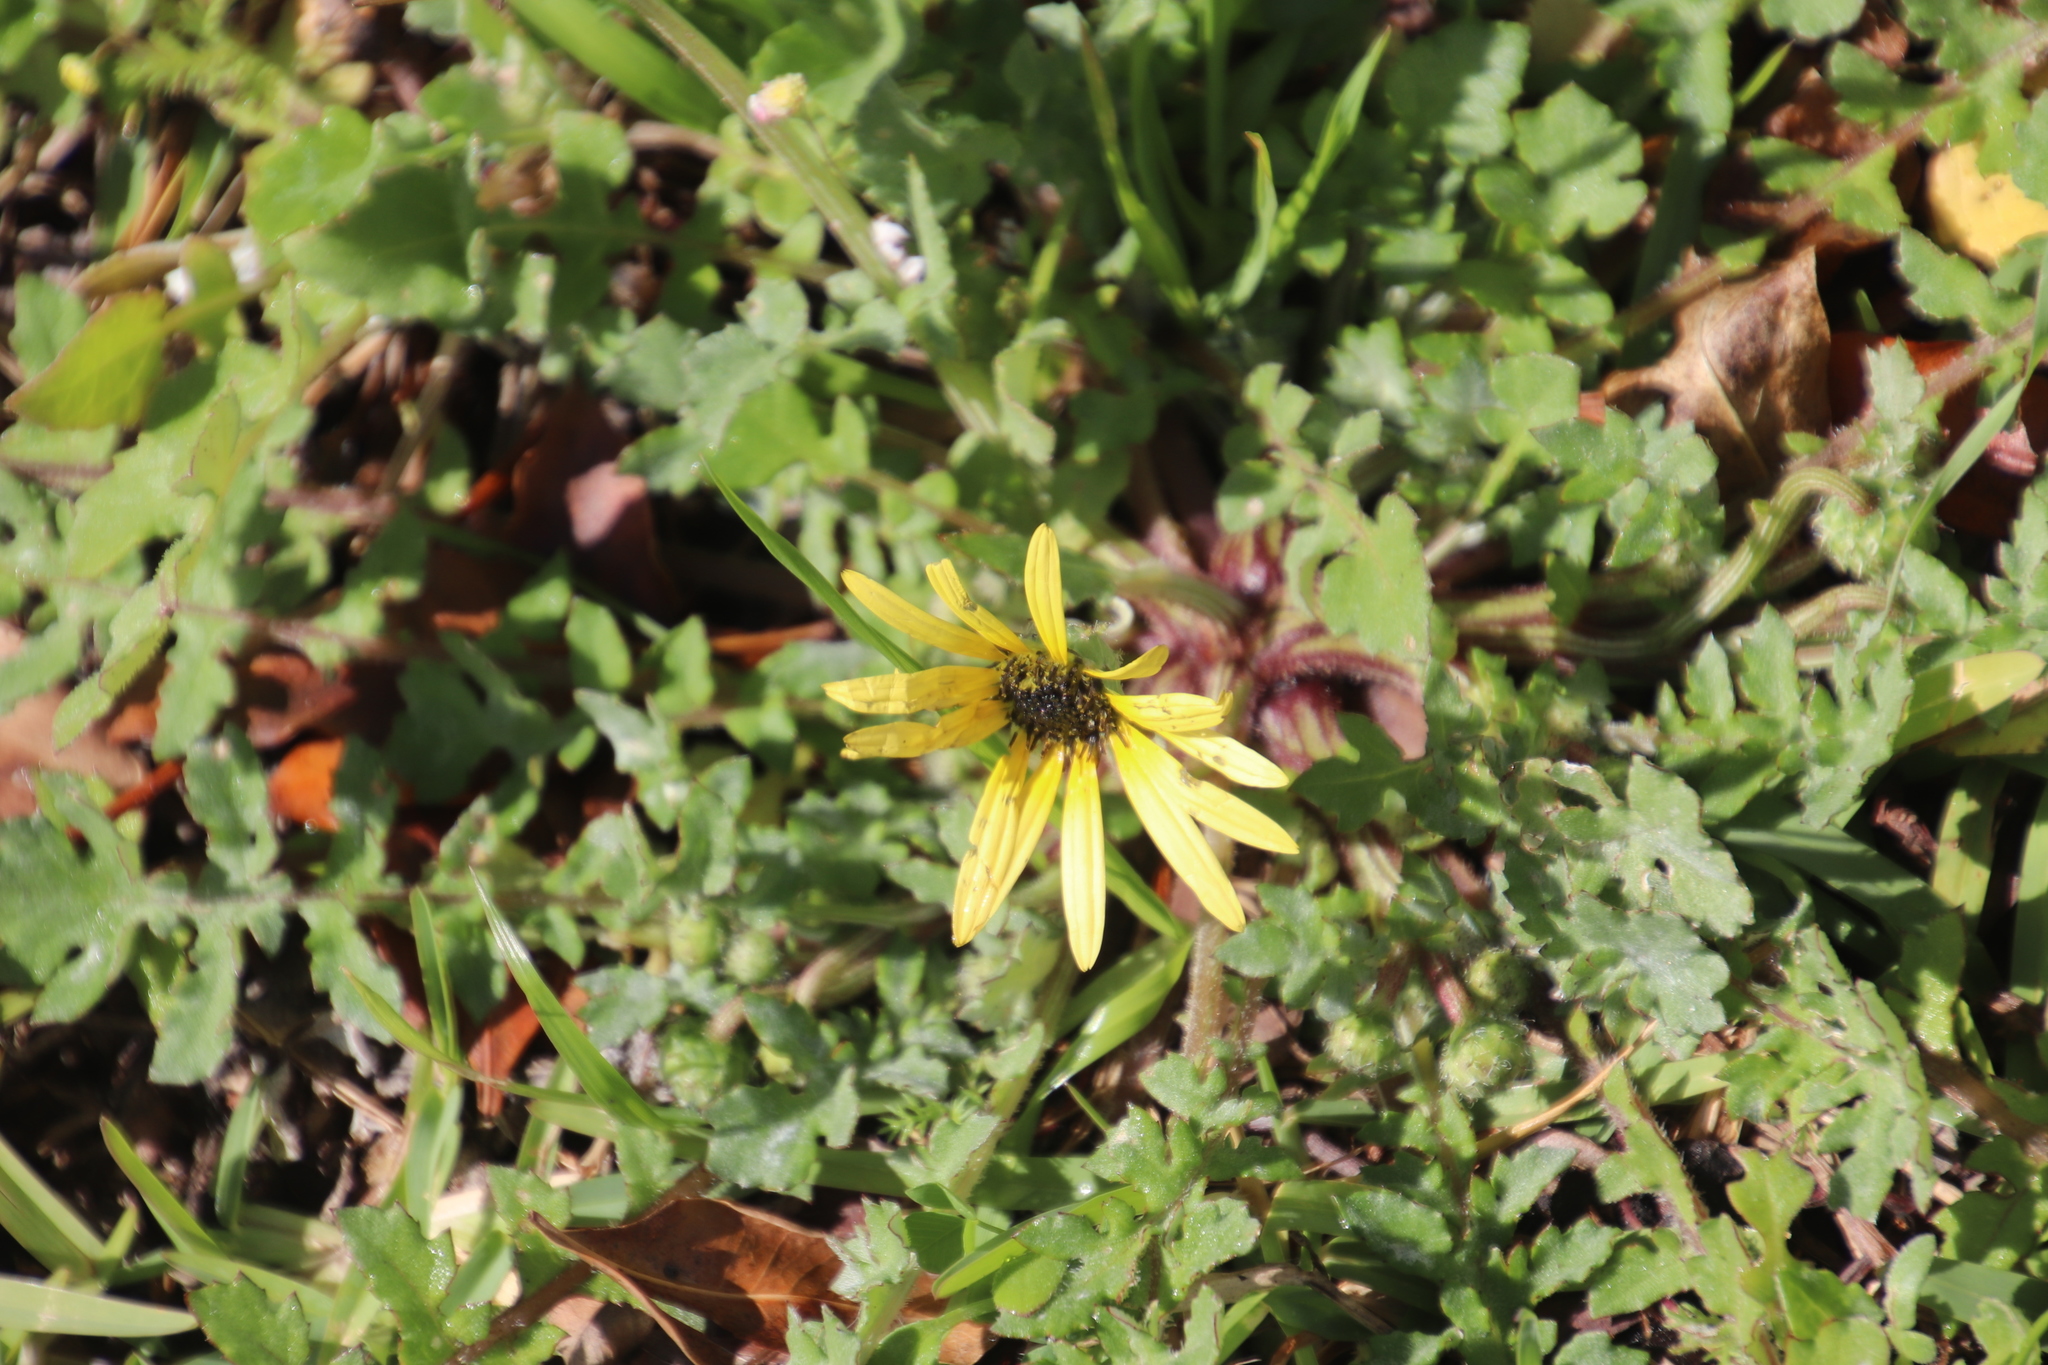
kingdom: Plantae
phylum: Tracheophyta
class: Magnoliopsida
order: Asterales
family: Asteraceae
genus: Arctotheca
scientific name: Arctotheca calendula
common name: Capeweed
